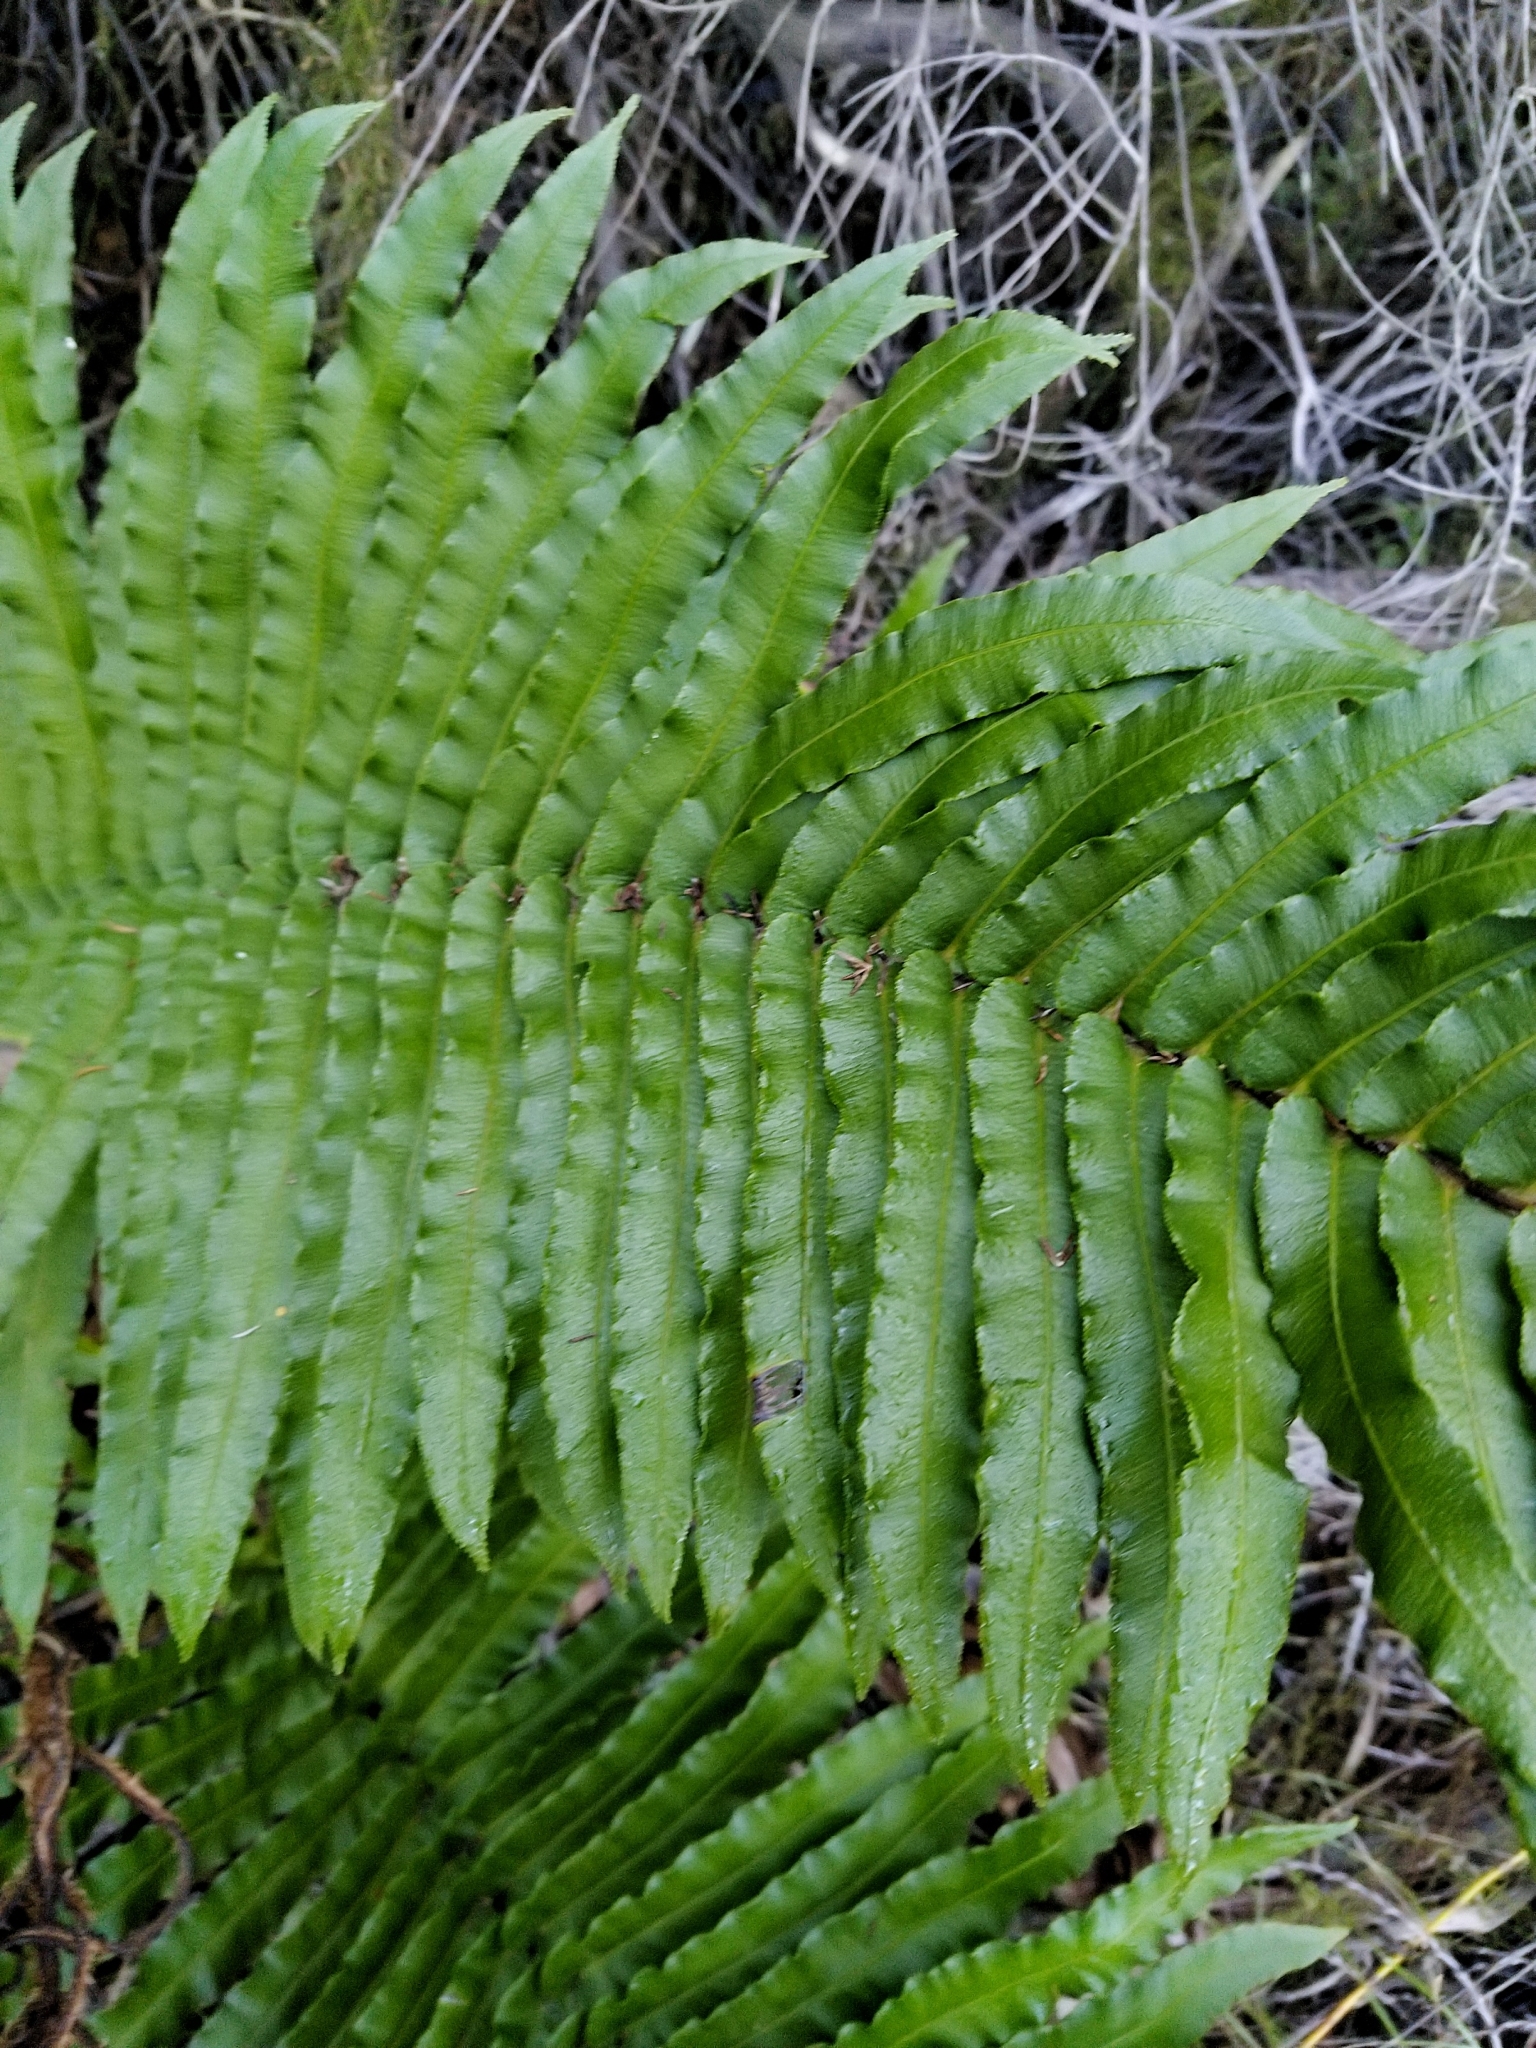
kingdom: Plantae
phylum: Tracheophyta
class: Polypodiopsida
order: Polypodiales
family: Blechnaceae
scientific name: Blechnaceae
